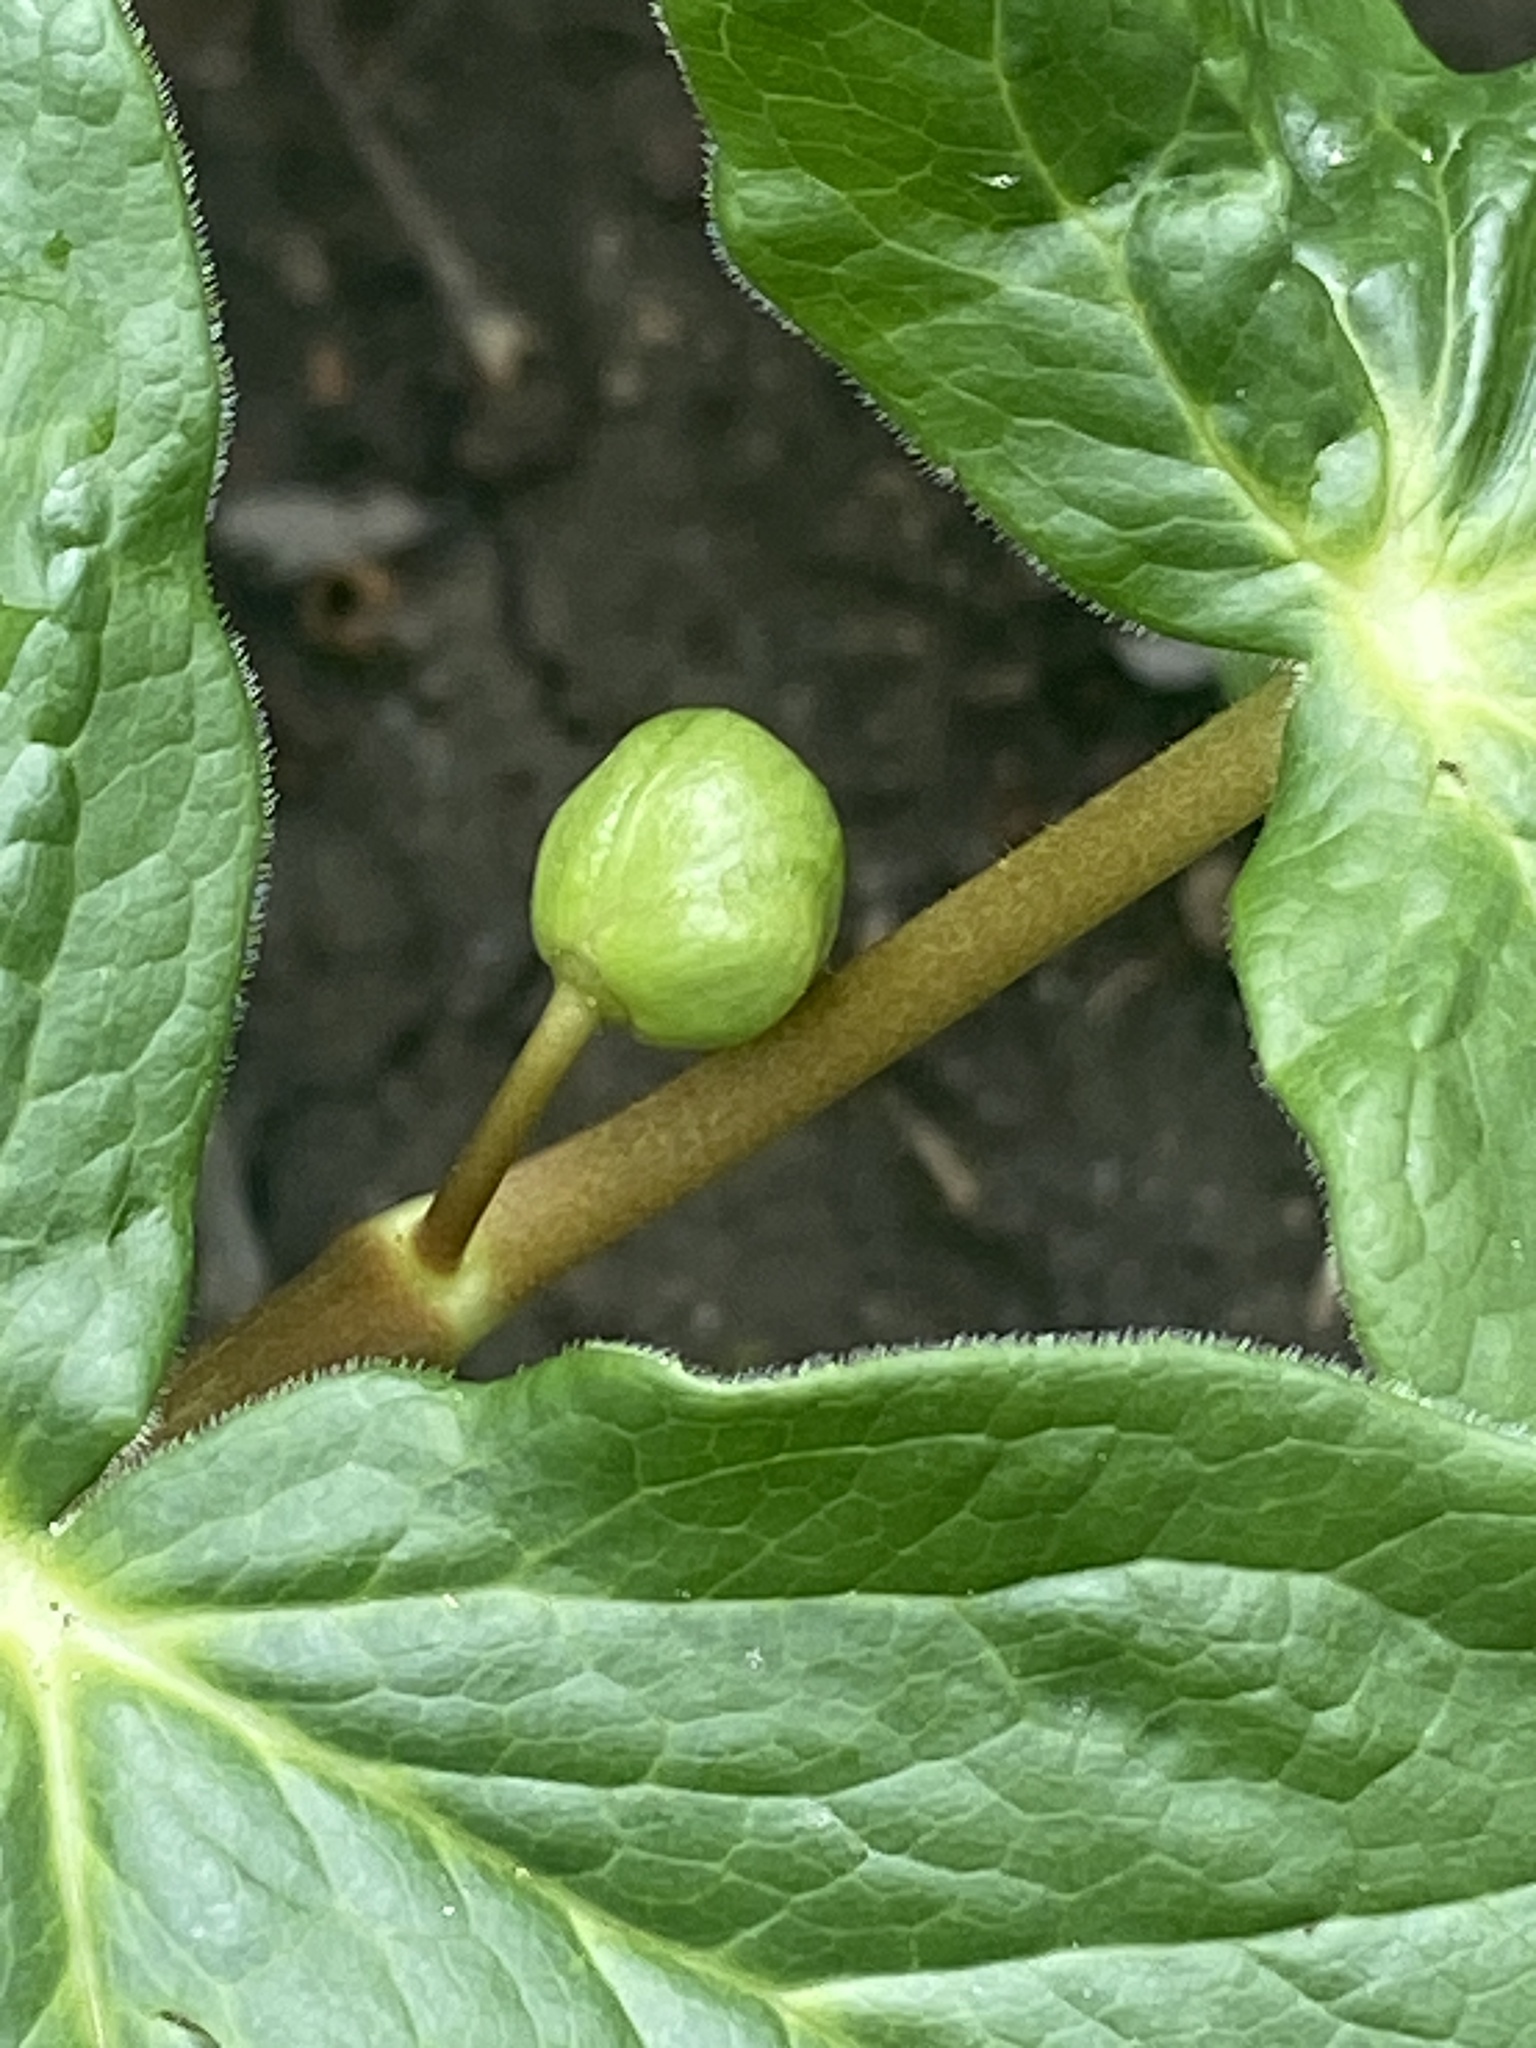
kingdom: Plantae
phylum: Tracheophyta
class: Magnoliopsida
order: Ranunculales
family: Berberidaceae
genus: Podophyllum
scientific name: Podophyllum peltatum
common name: Wild mandrake
